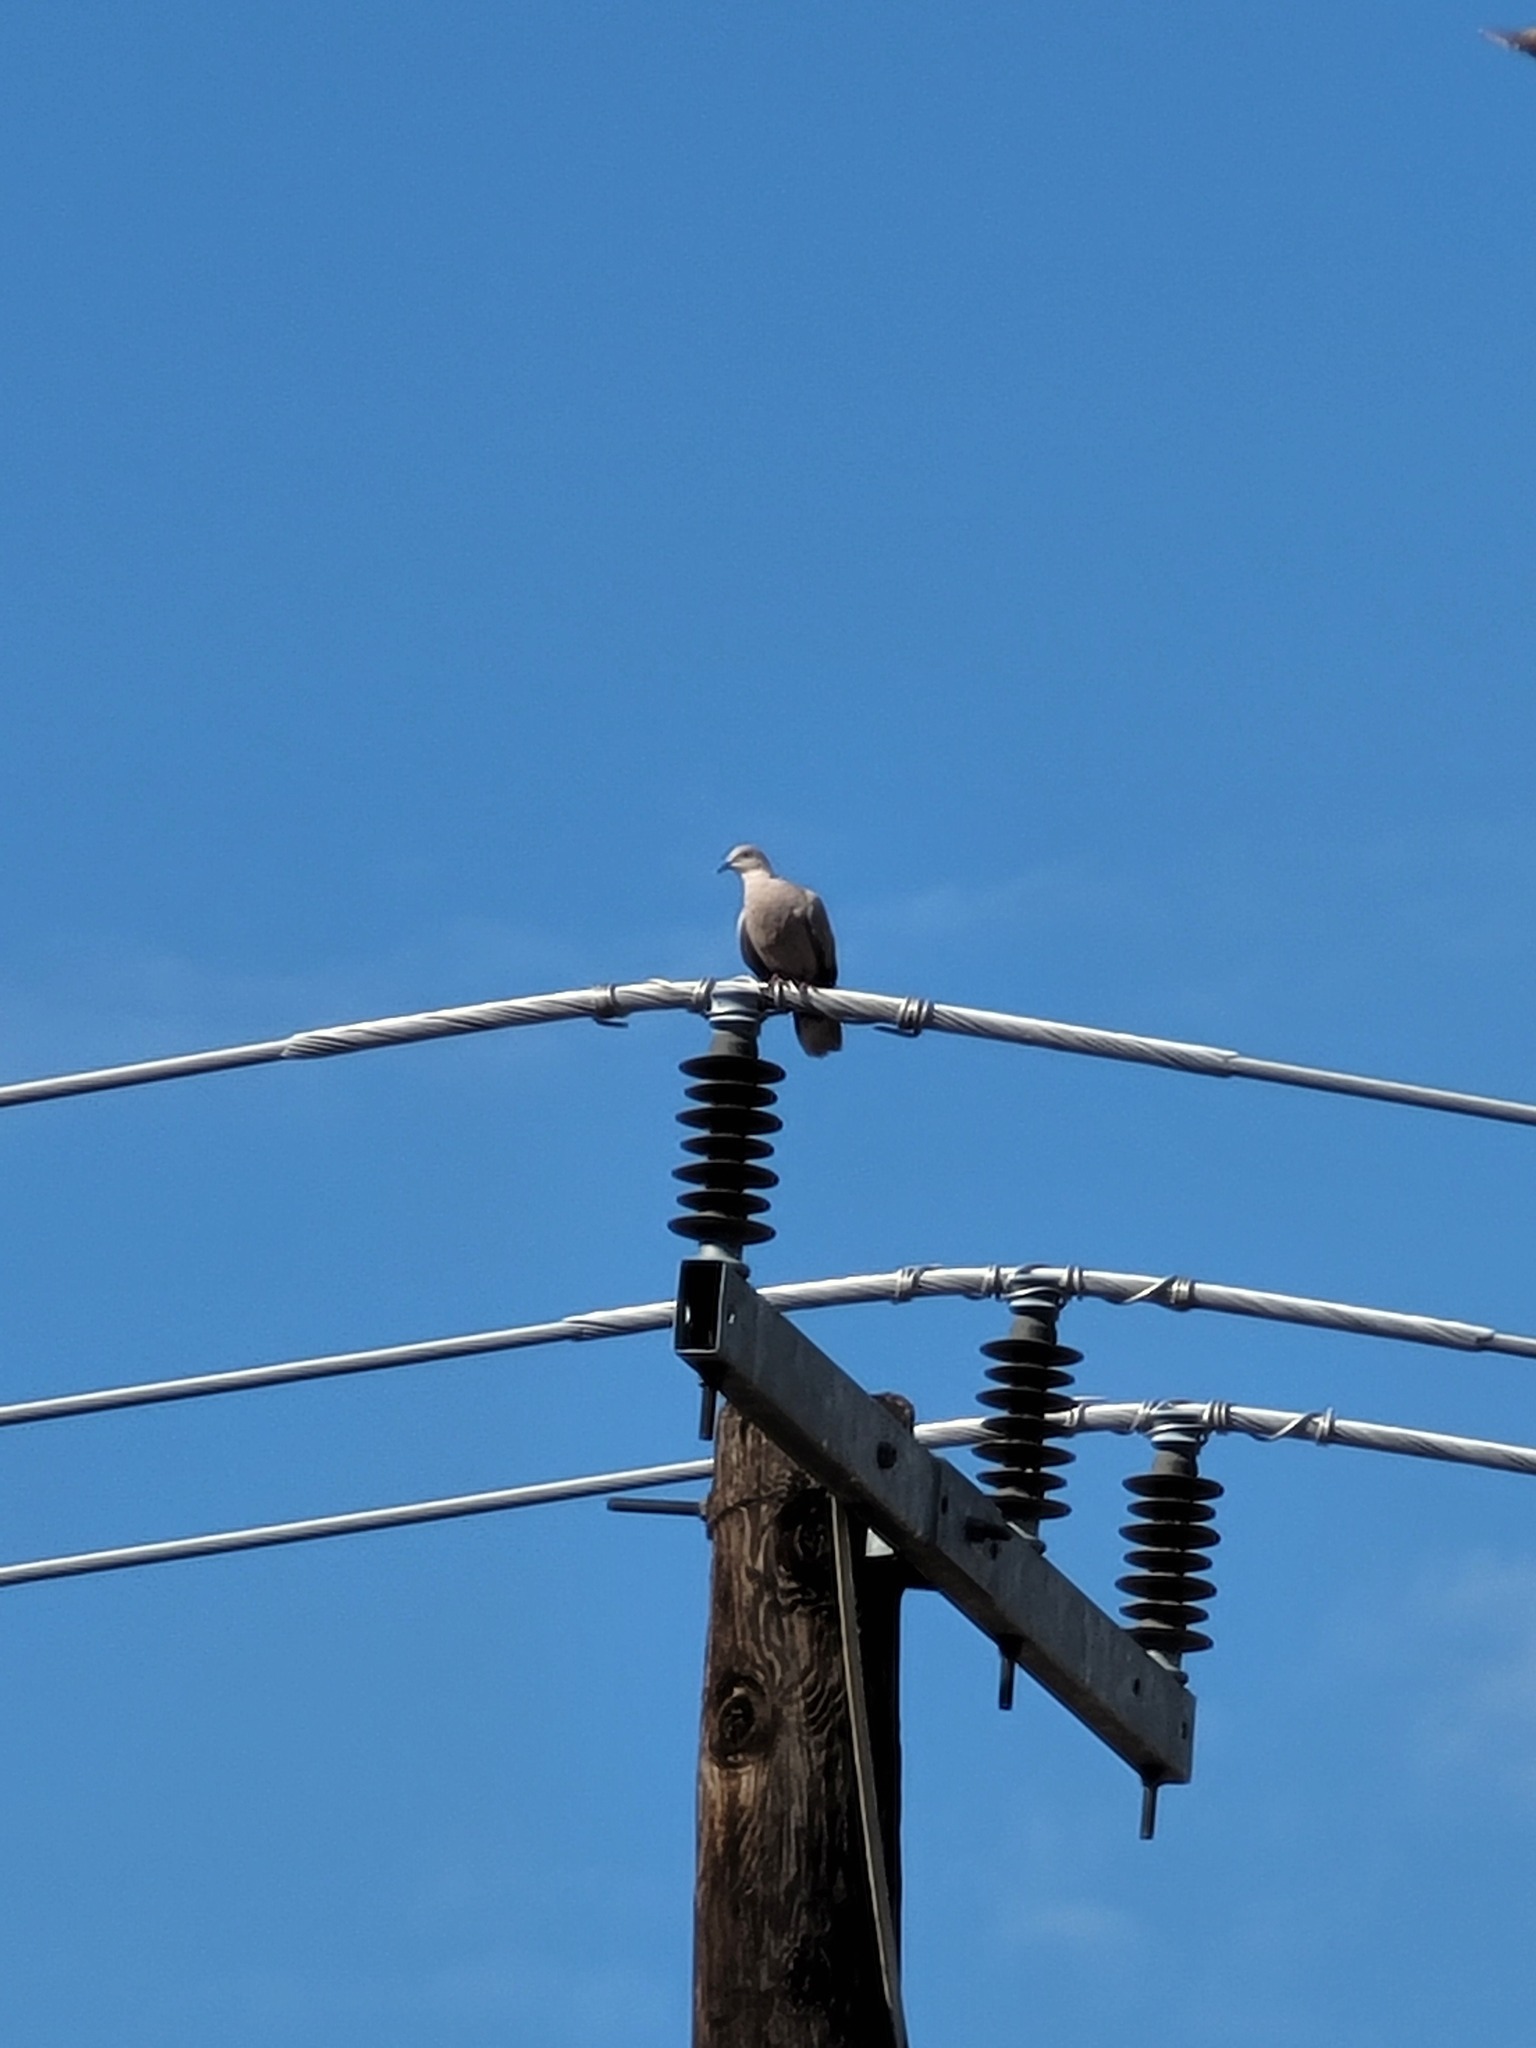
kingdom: Animalia
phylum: Chordata
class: Aves
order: Columbiformes
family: Columbidae
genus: Streptopelia
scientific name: Streptopelia decaocto
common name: Eurasian collared dove
